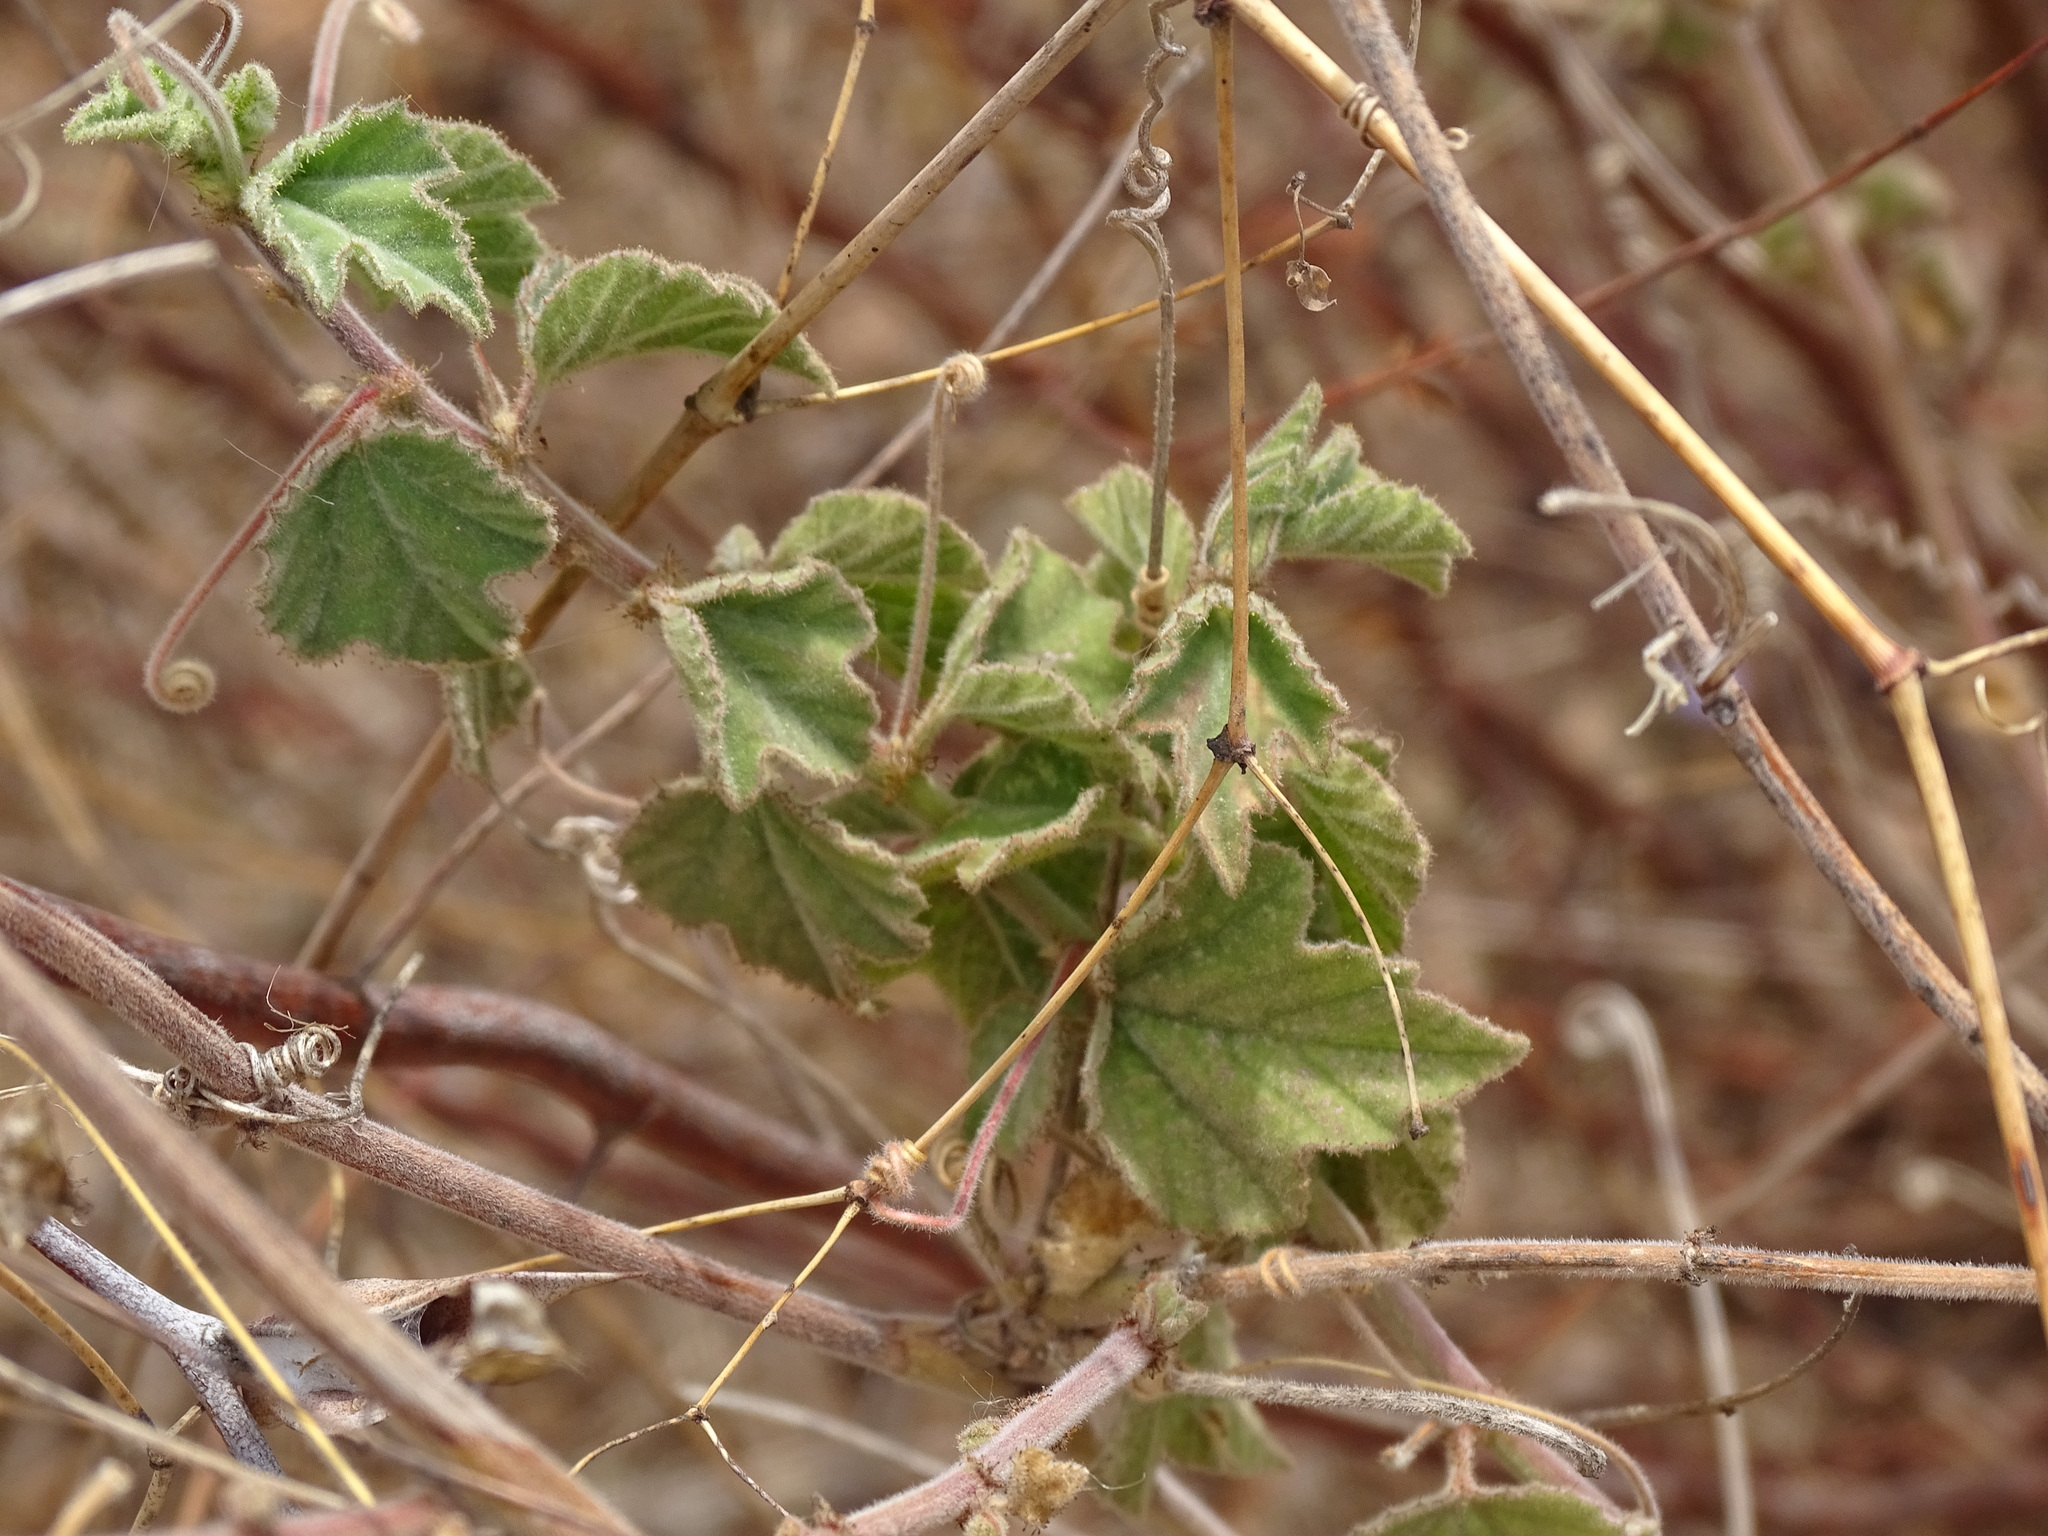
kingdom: Plantae
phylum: Tracheophyta
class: Magnoliopsida
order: Malpighiales
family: Passifloraceae
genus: Passiflora
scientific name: Passiflora foetida
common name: Fetid passionflower
